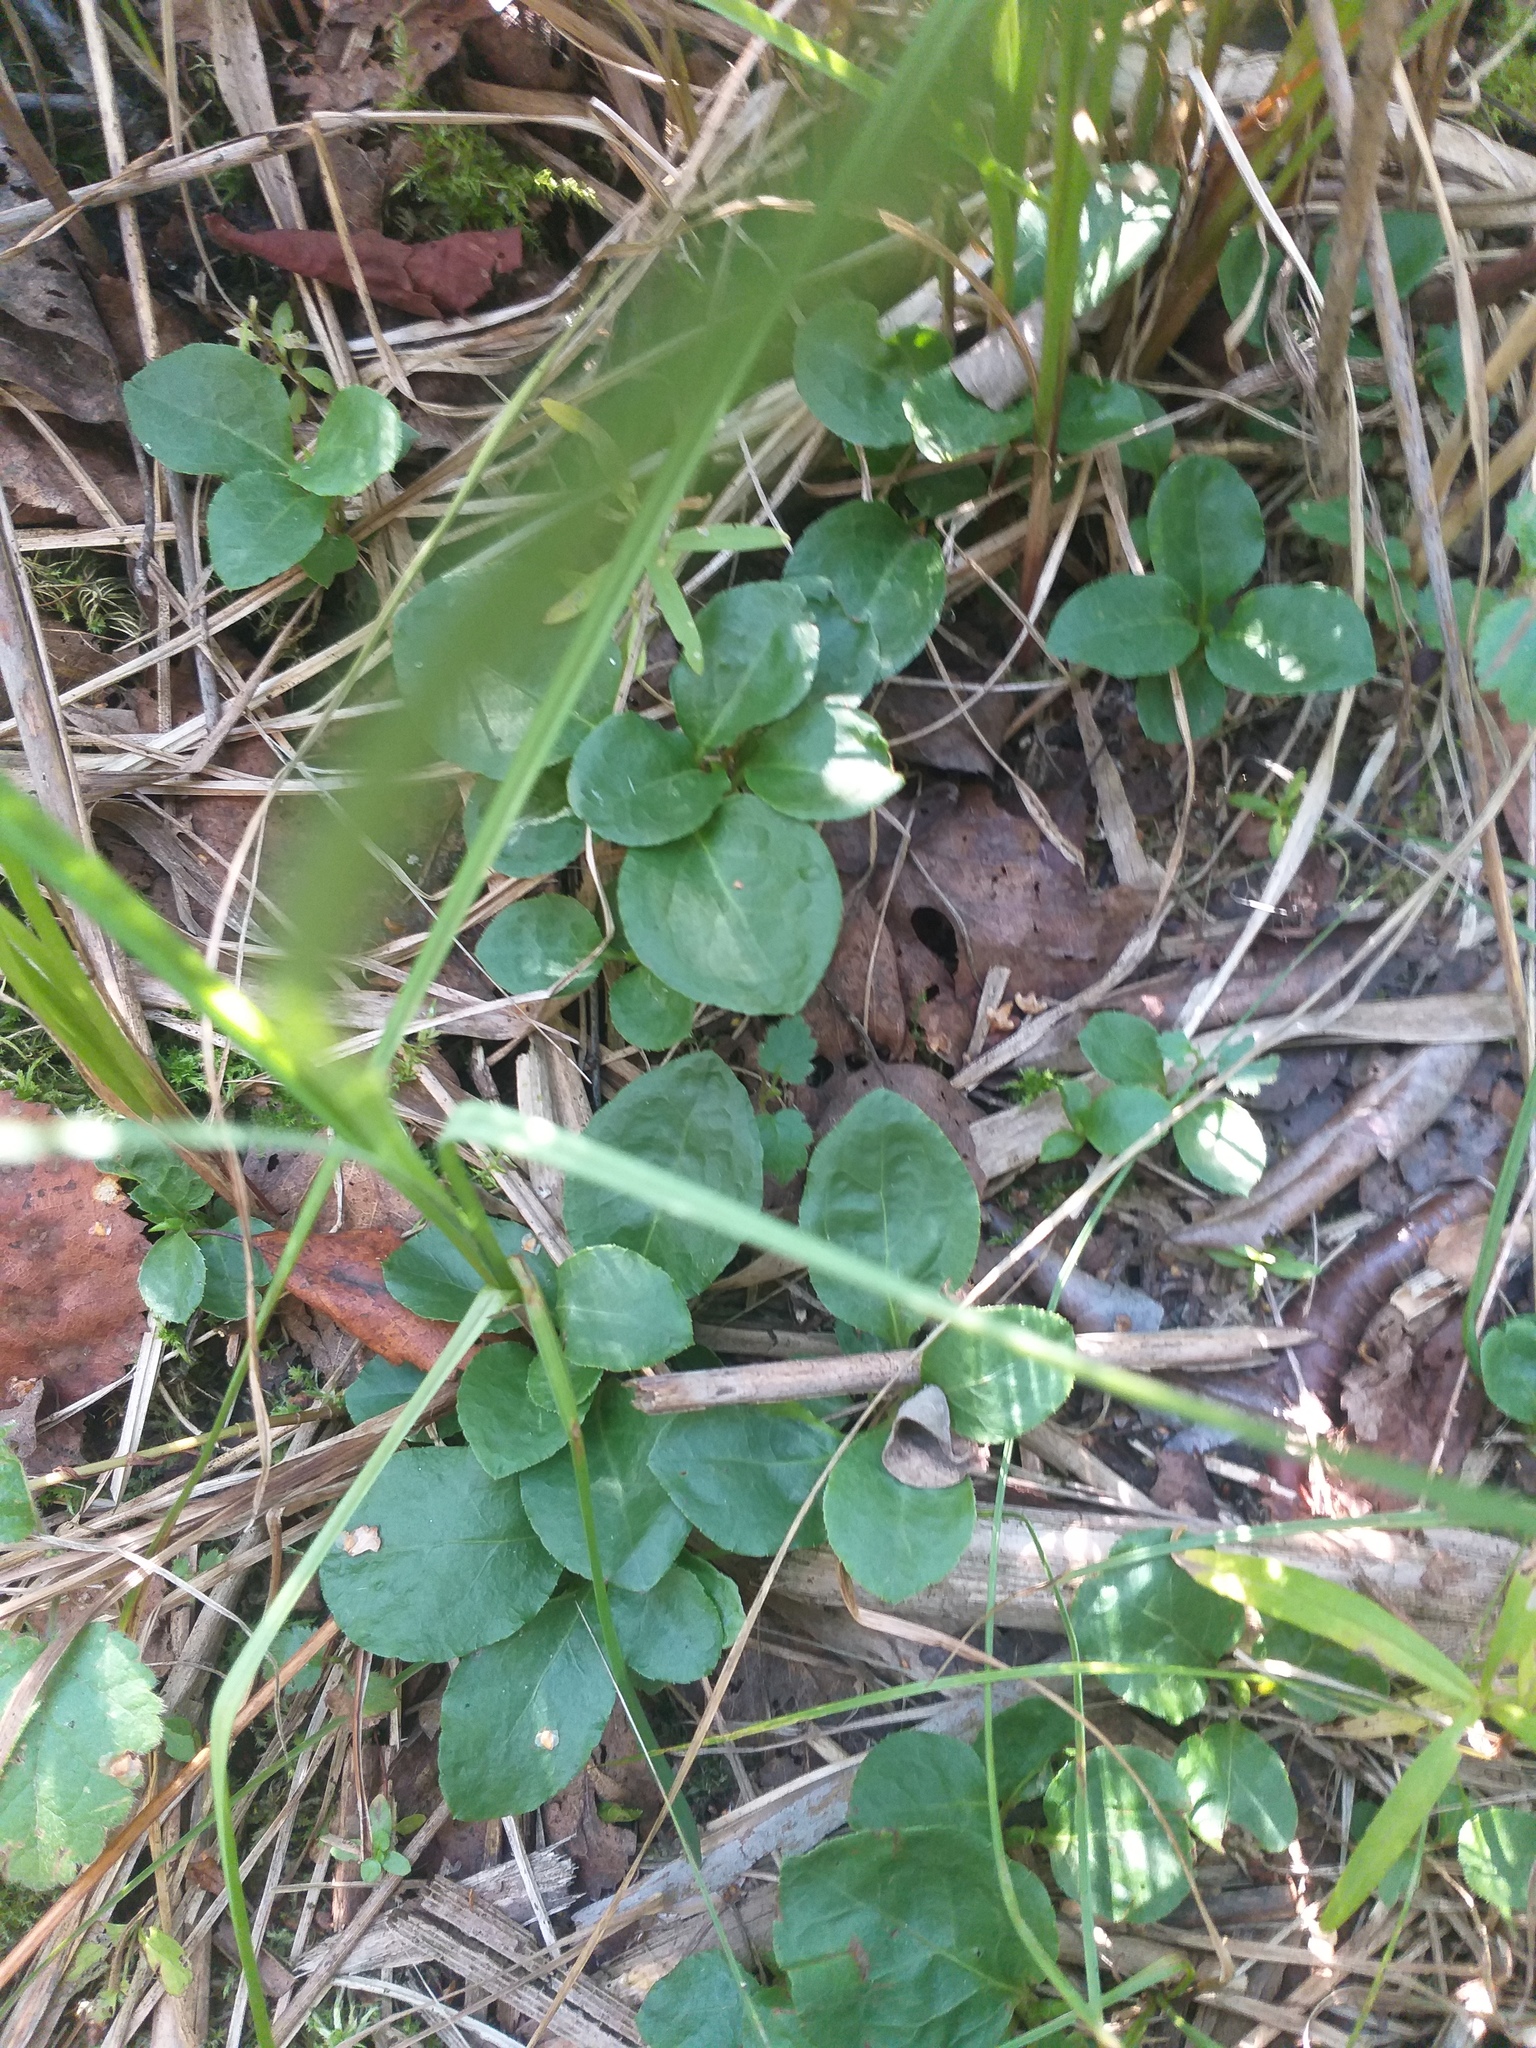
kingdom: Plantae
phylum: Tracheophyta
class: Magnoliopsida
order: Ericales
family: Ericaceae
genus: Orthilia
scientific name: Orthilia secunda
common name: One-sided orthilia
